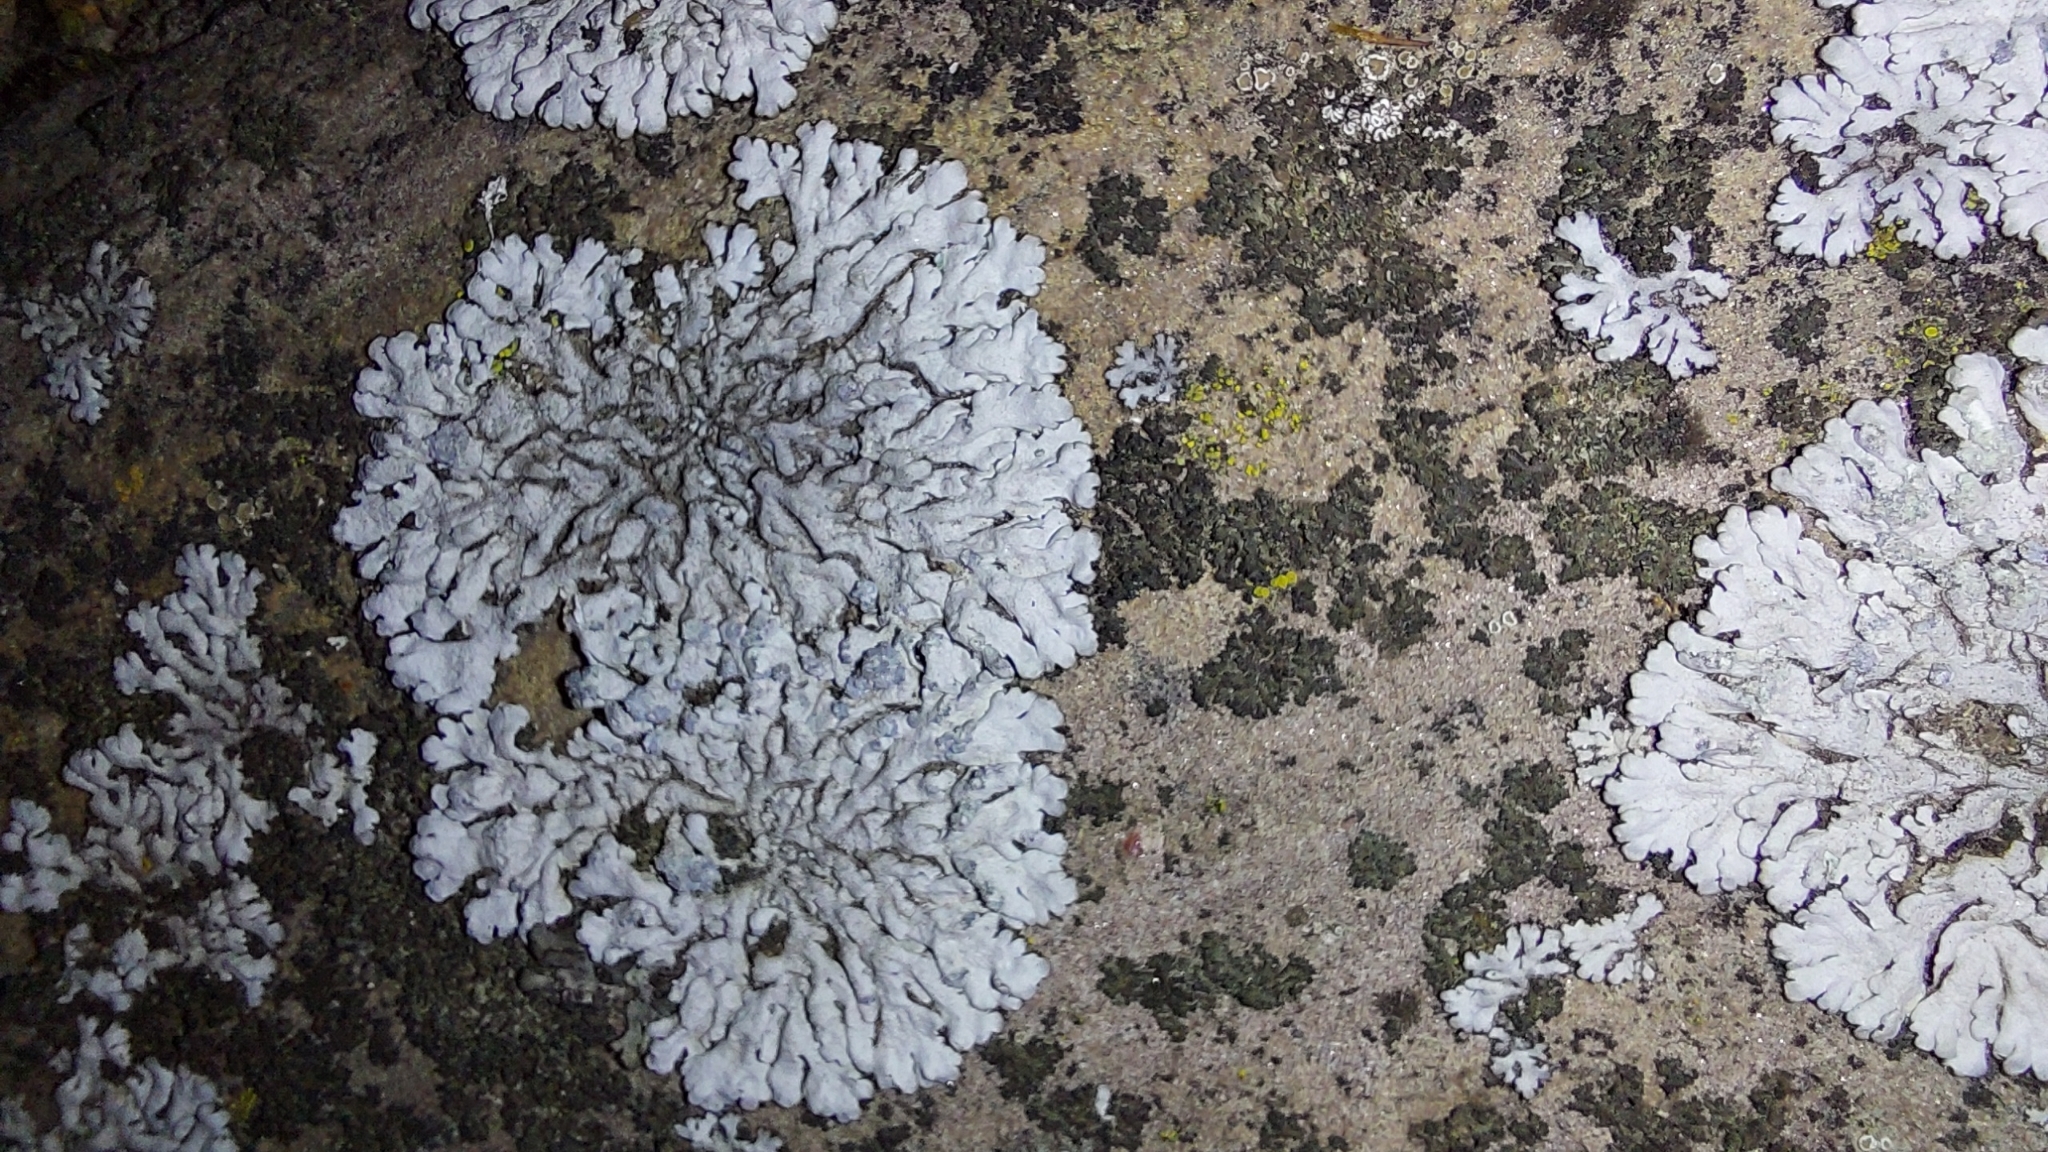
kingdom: Fungi
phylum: Ascomycota
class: Lecanoromycetes
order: Caliciales
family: Physciaceae
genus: Physcia
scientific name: Physcia caesia
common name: Blue-gray rosette lichen
